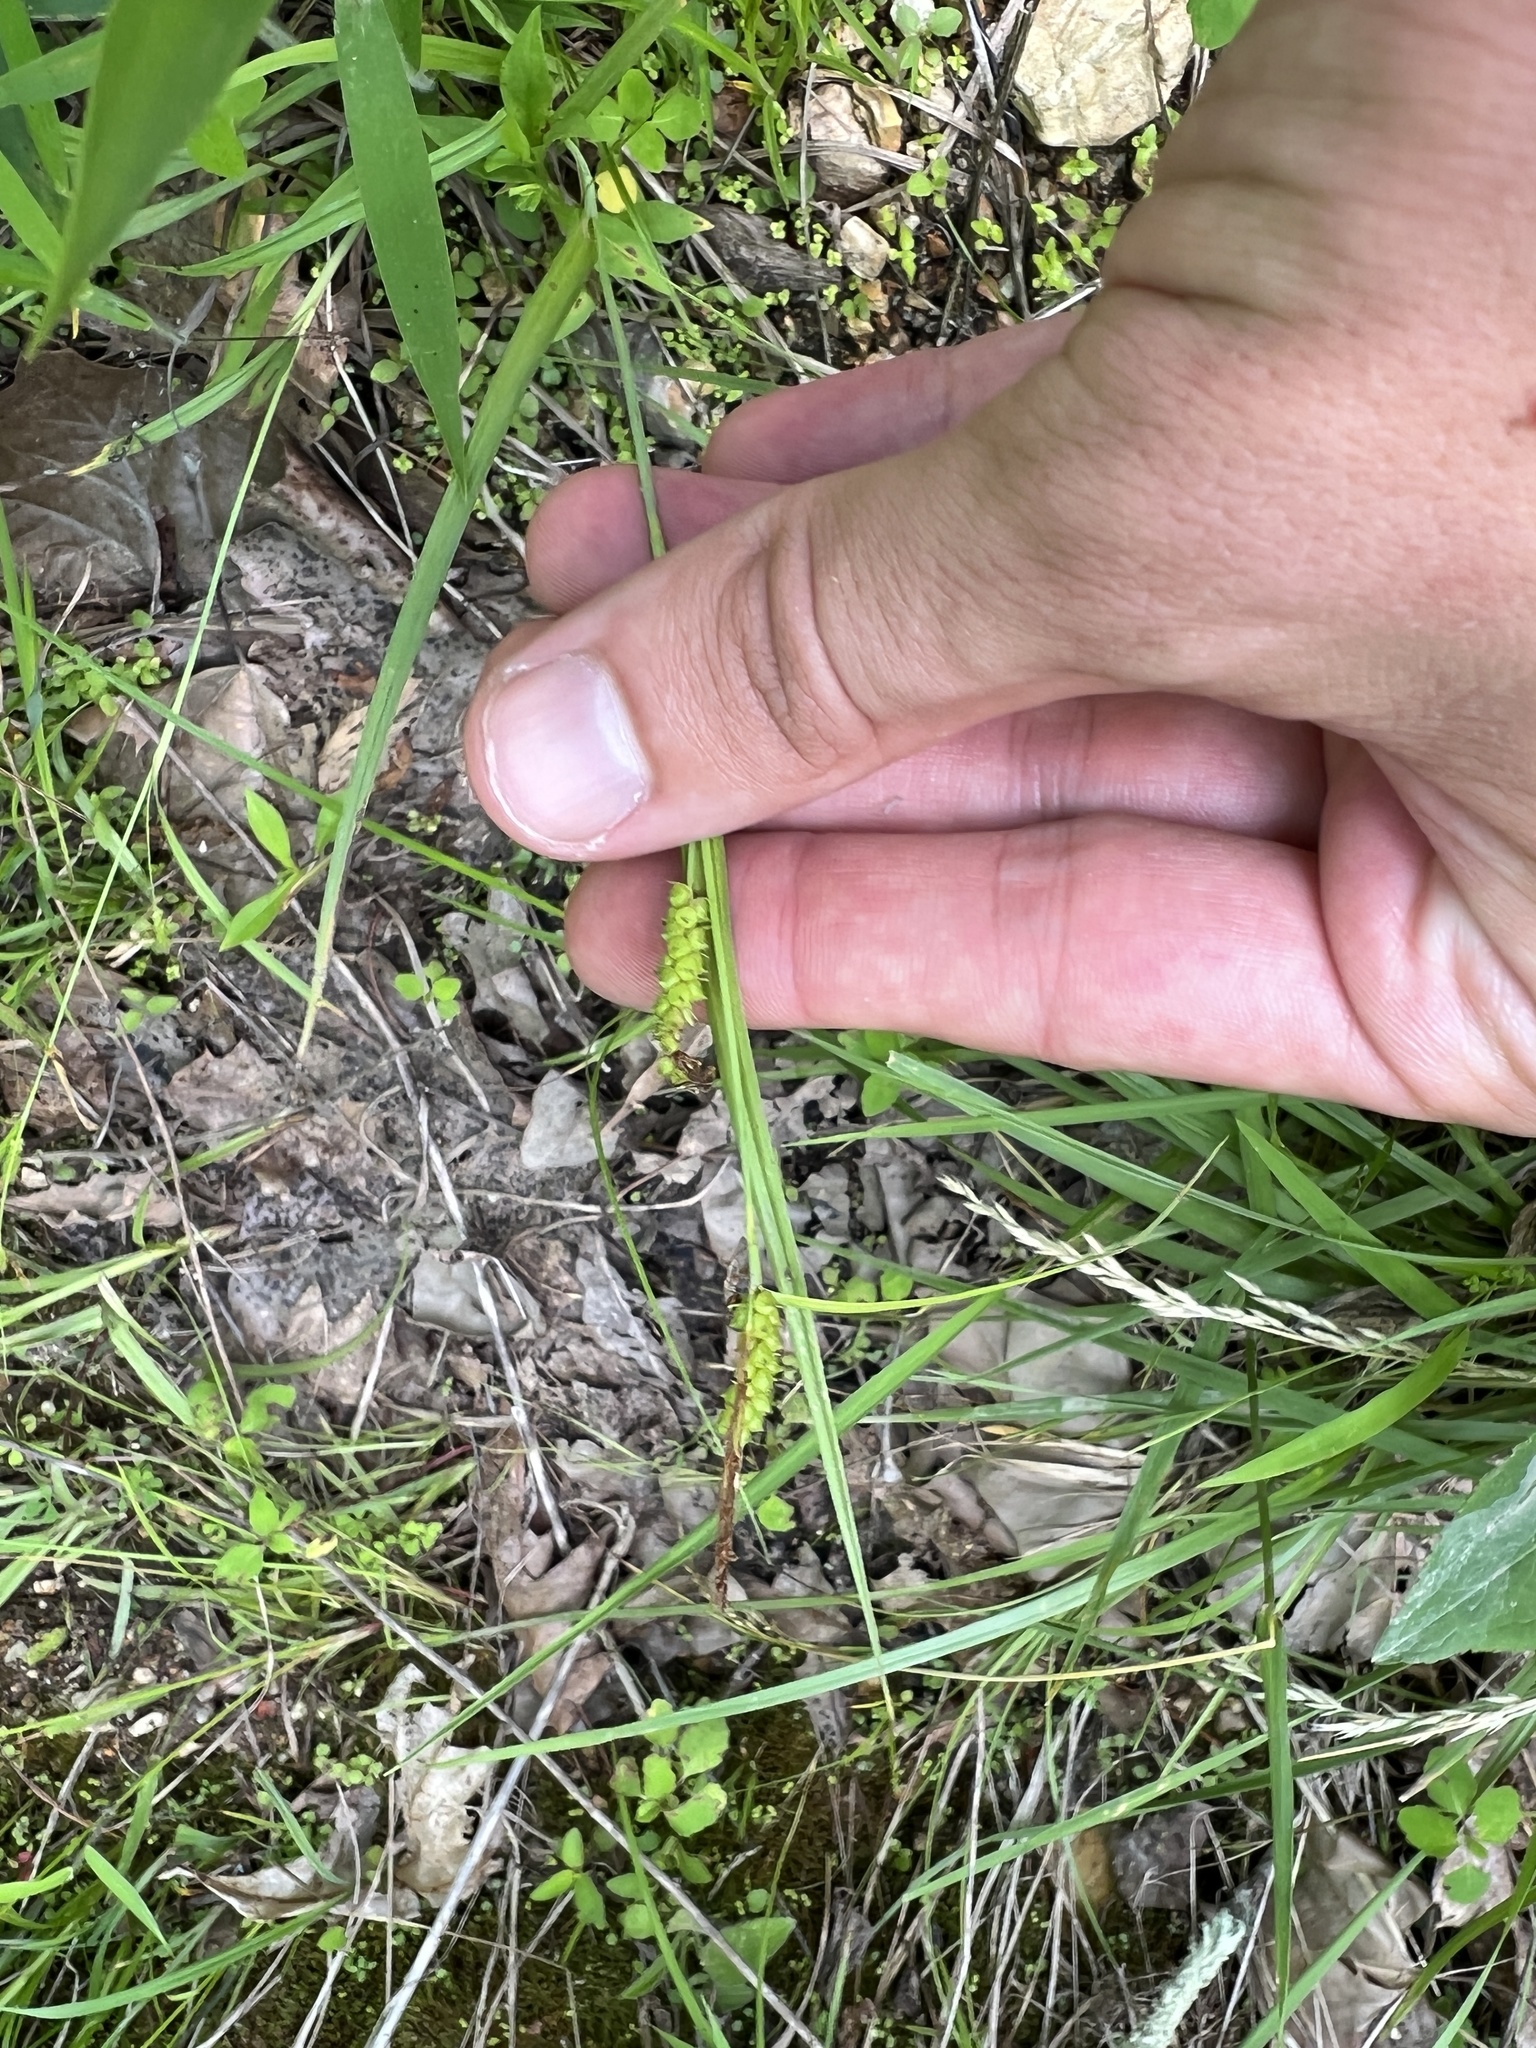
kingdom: Plantae
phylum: Tracheophyta
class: Liliopsida
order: Poales
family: Cyperaceae
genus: Carex
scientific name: Carex granularis
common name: Granular sedge
